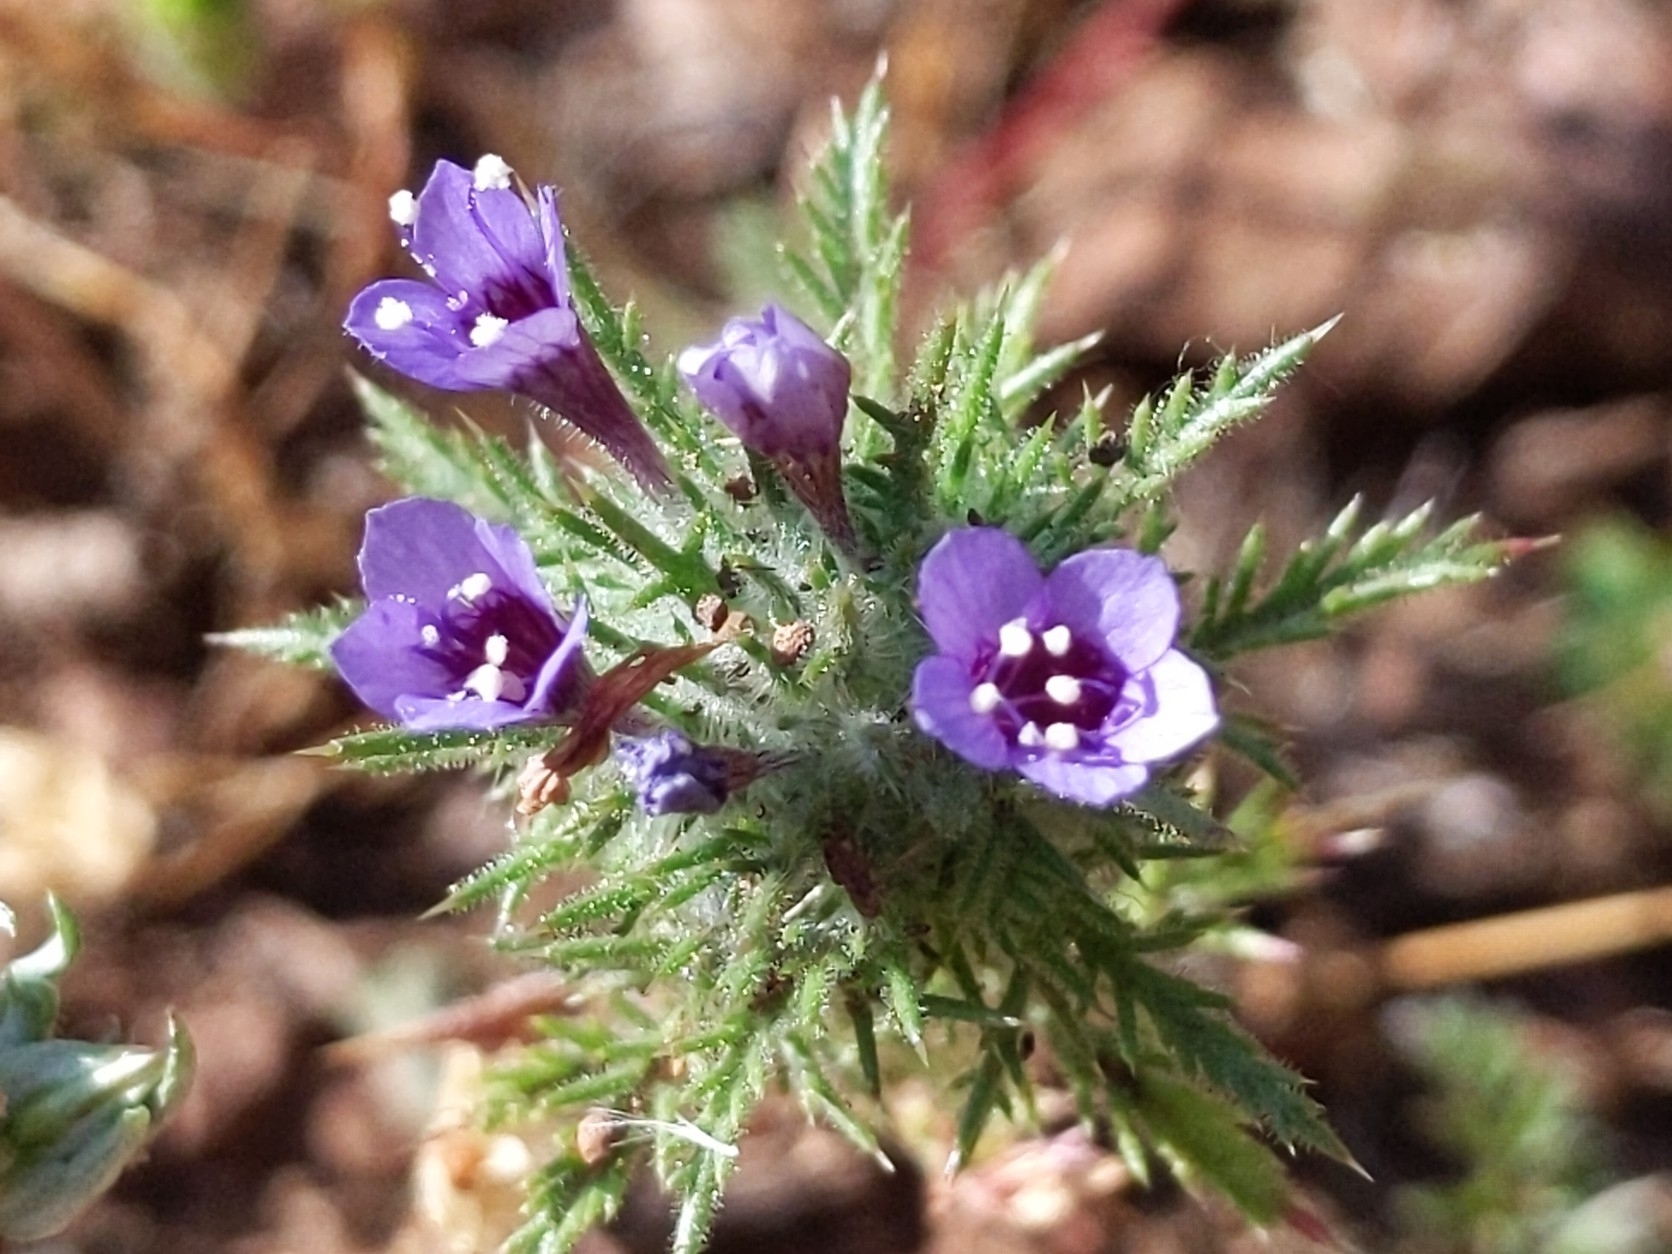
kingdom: Plantae
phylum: Tracheophyta
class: Magnoliopsida
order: Ericales
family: Polemoniaceae
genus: Navarretia
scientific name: Navarretia pubescens
